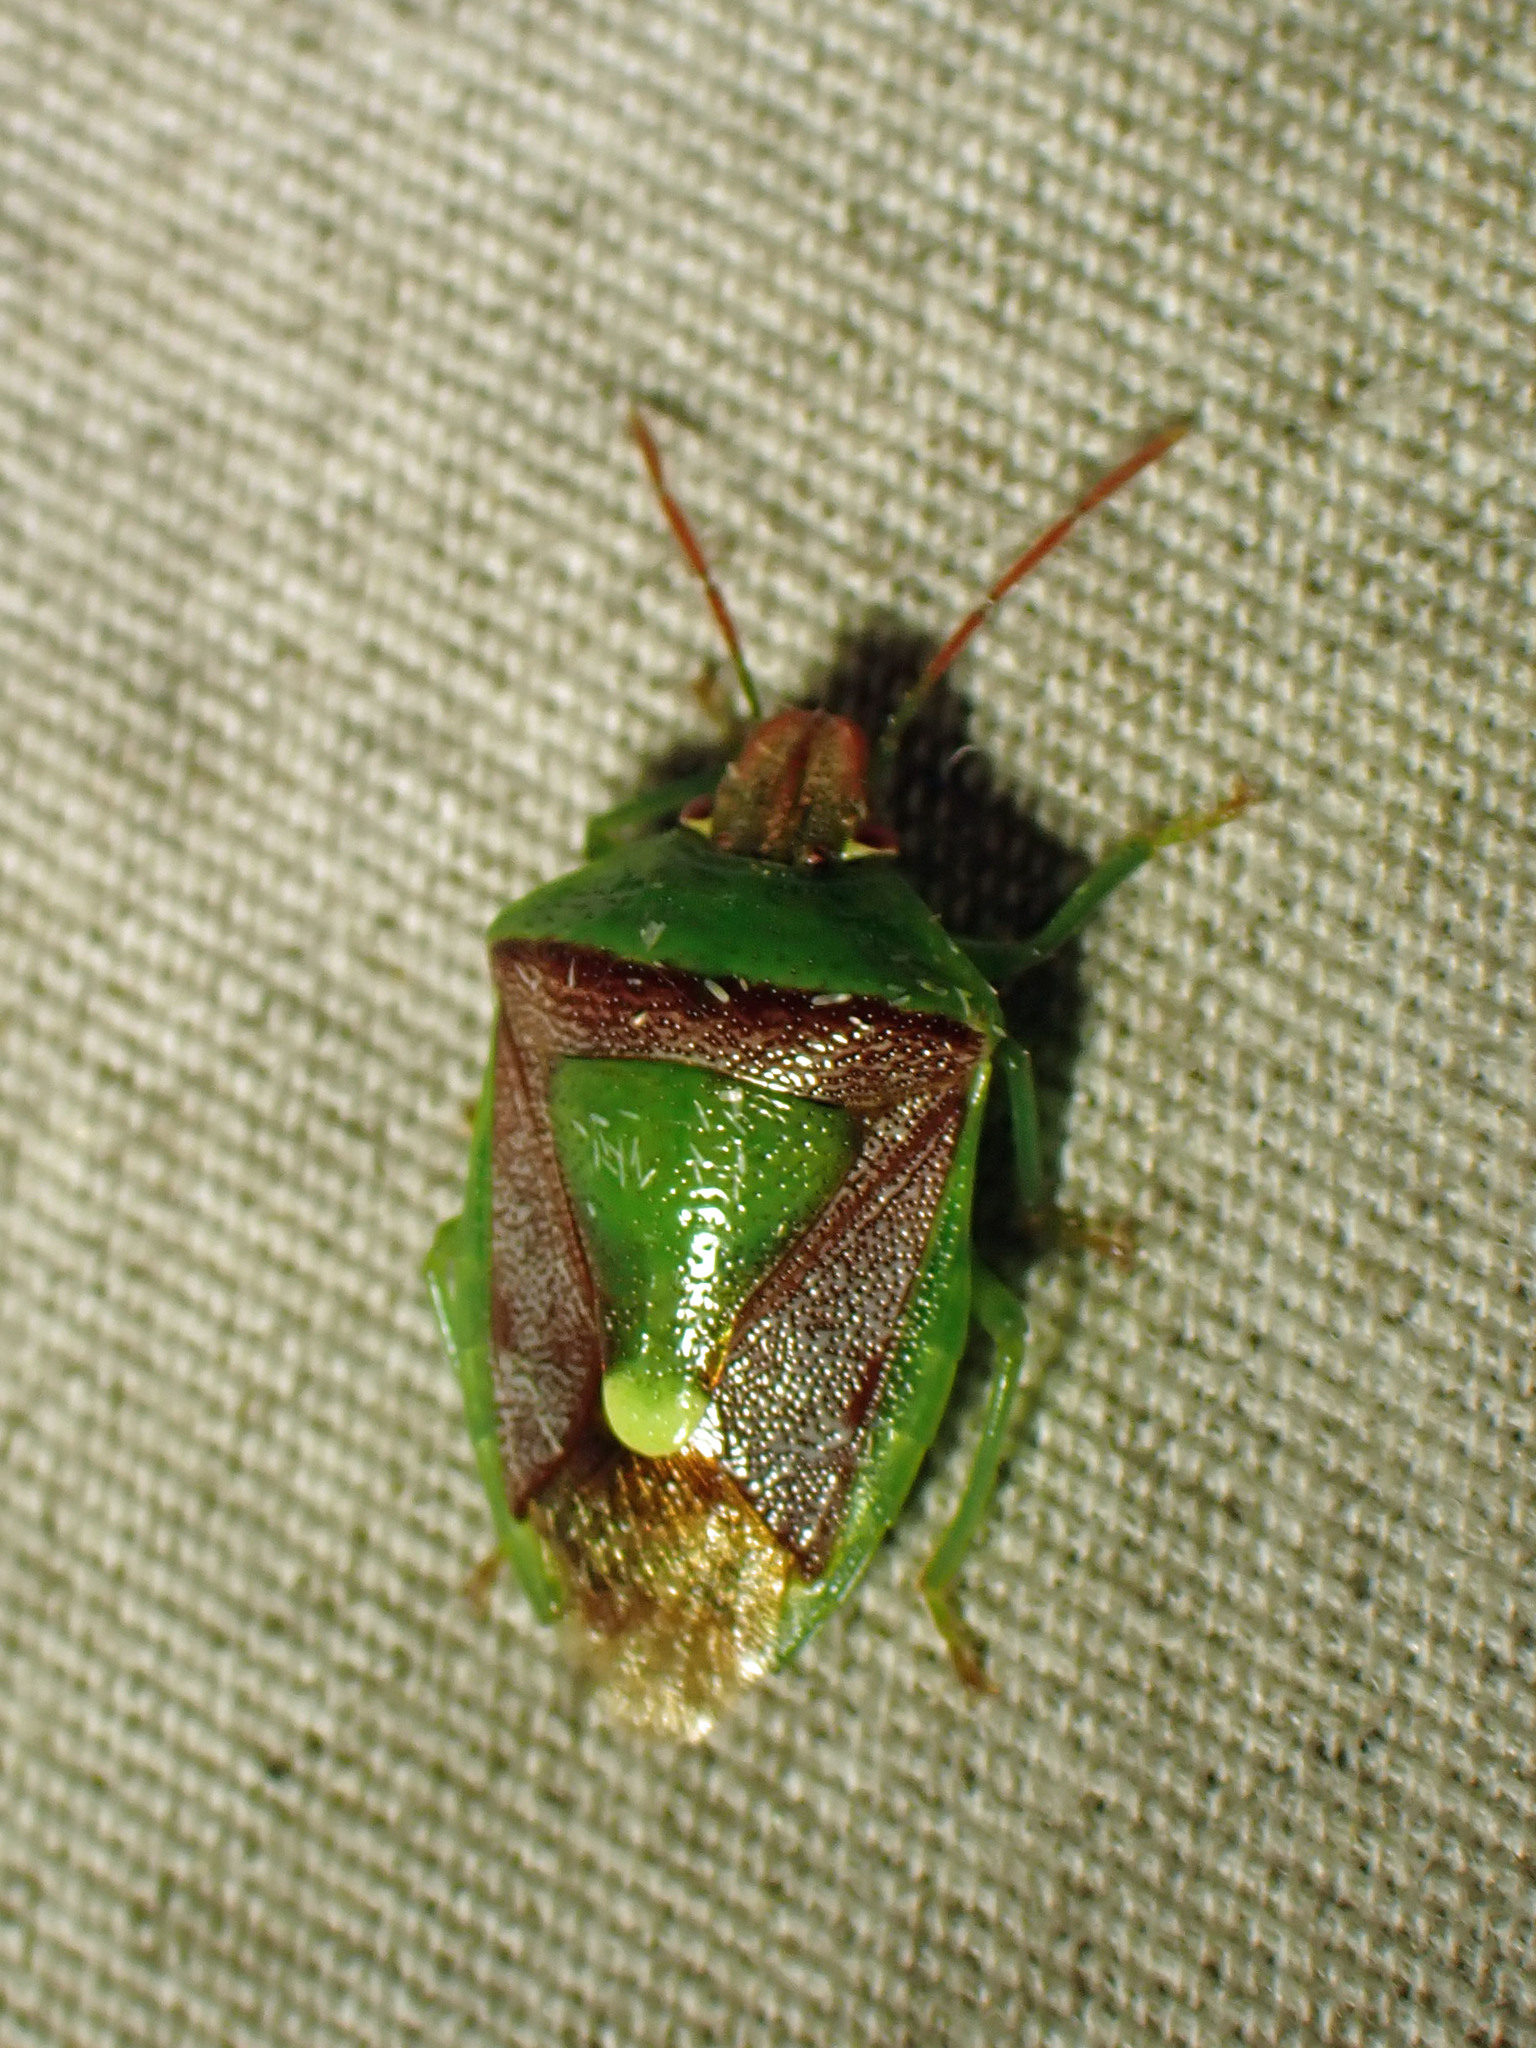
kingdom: Animalia
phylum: Arthropoda
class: Insecta
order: Hemiptera
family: Pentatomidae
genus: Banasa
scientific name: Banasa dimidiata
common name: Green burgundy stink bug
